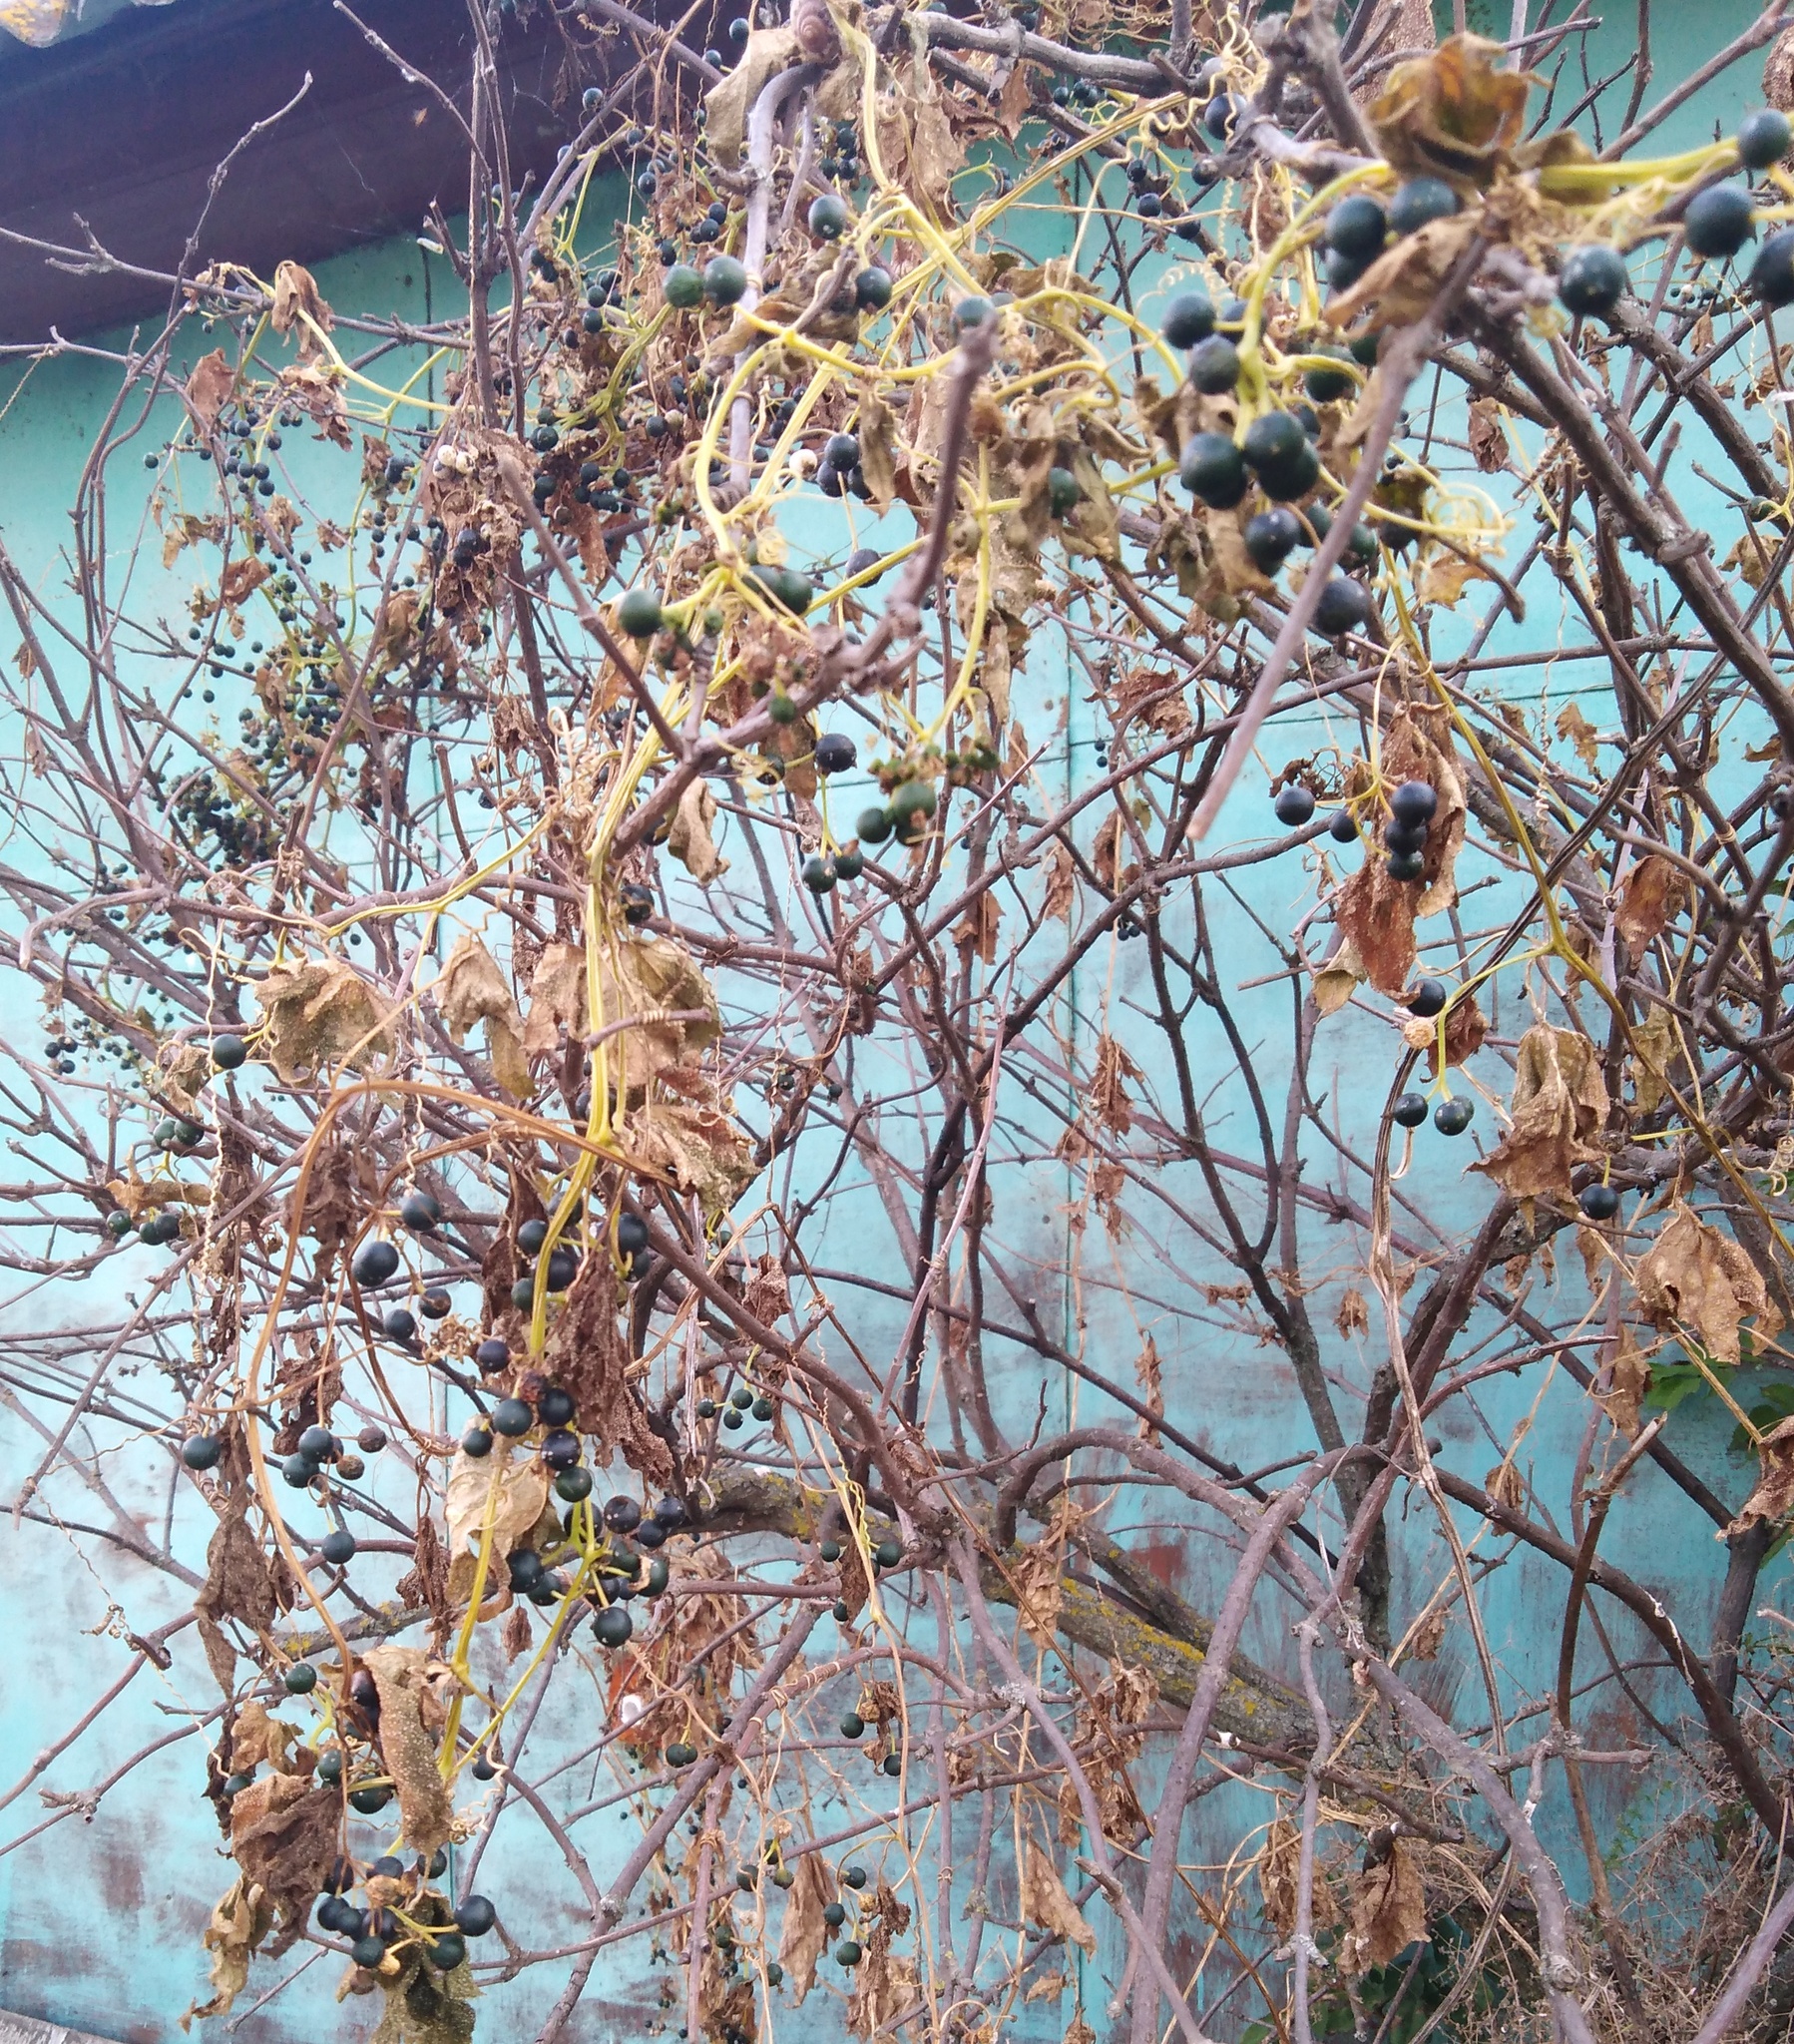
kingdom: Plantae
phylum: Tracheophyta
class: Magnoliopsida
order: Cucurbitales
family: Cucurbitaceae
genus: Bryonia
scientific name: Bryonia alba
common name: White bryony
